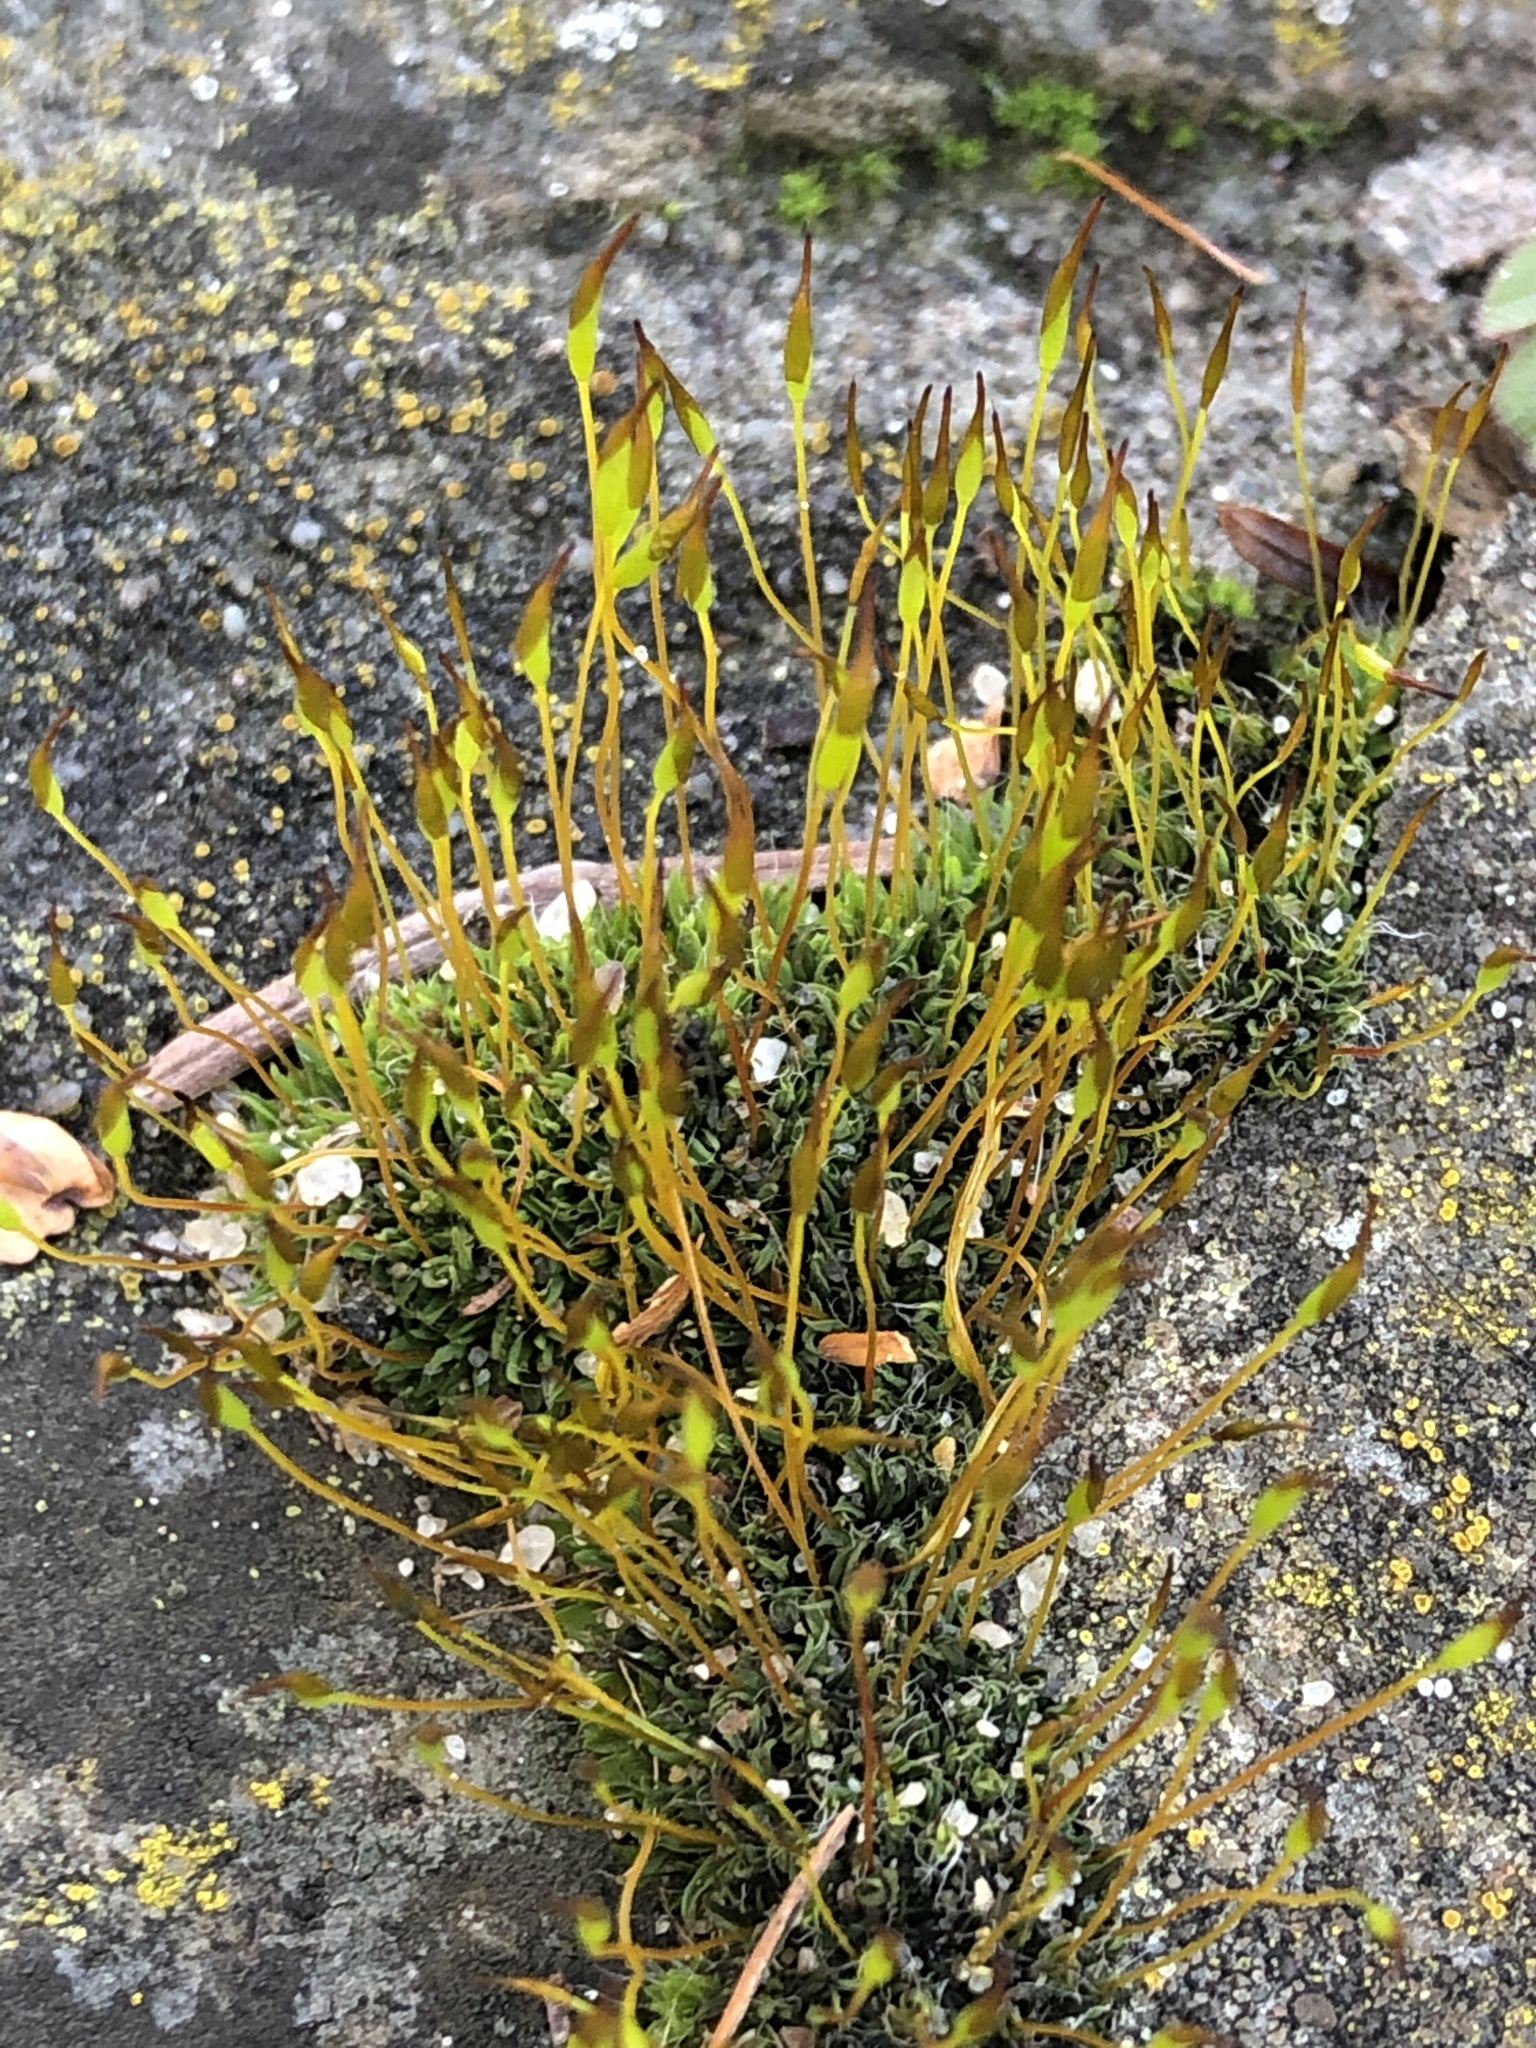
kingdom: Plantae
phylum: Bryophyta
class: Bryopsida
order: Pottiales
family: Pottiaceae
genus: Tortula
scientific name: Tortula muralis
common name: Wall screw-moss
